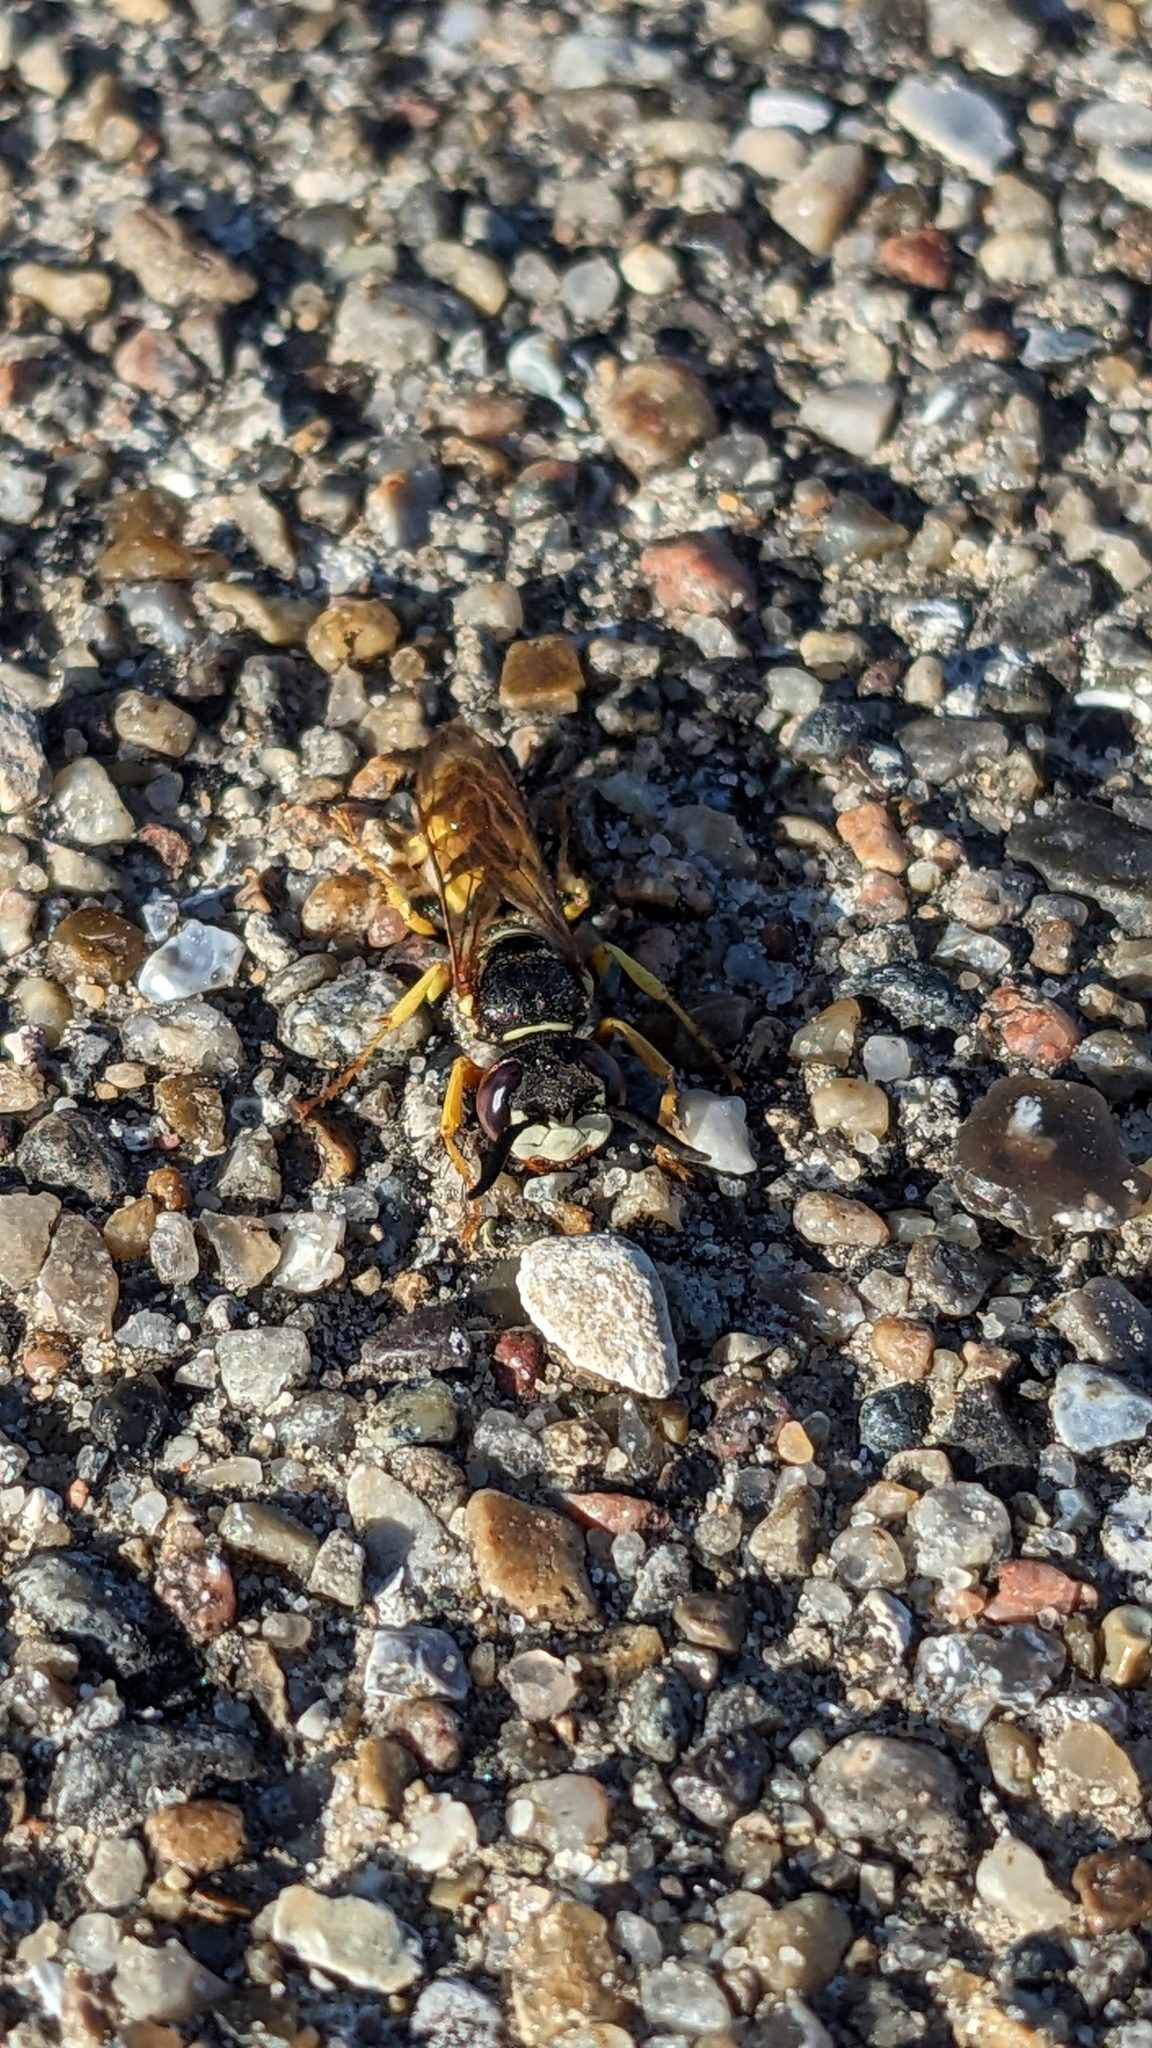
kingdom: Animalia
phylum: Arthropoda
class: Insecta
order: Hymenoptera
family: Crabronidae
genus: Philanthus
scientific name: Philanthus triangulum
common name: Bee wolf
